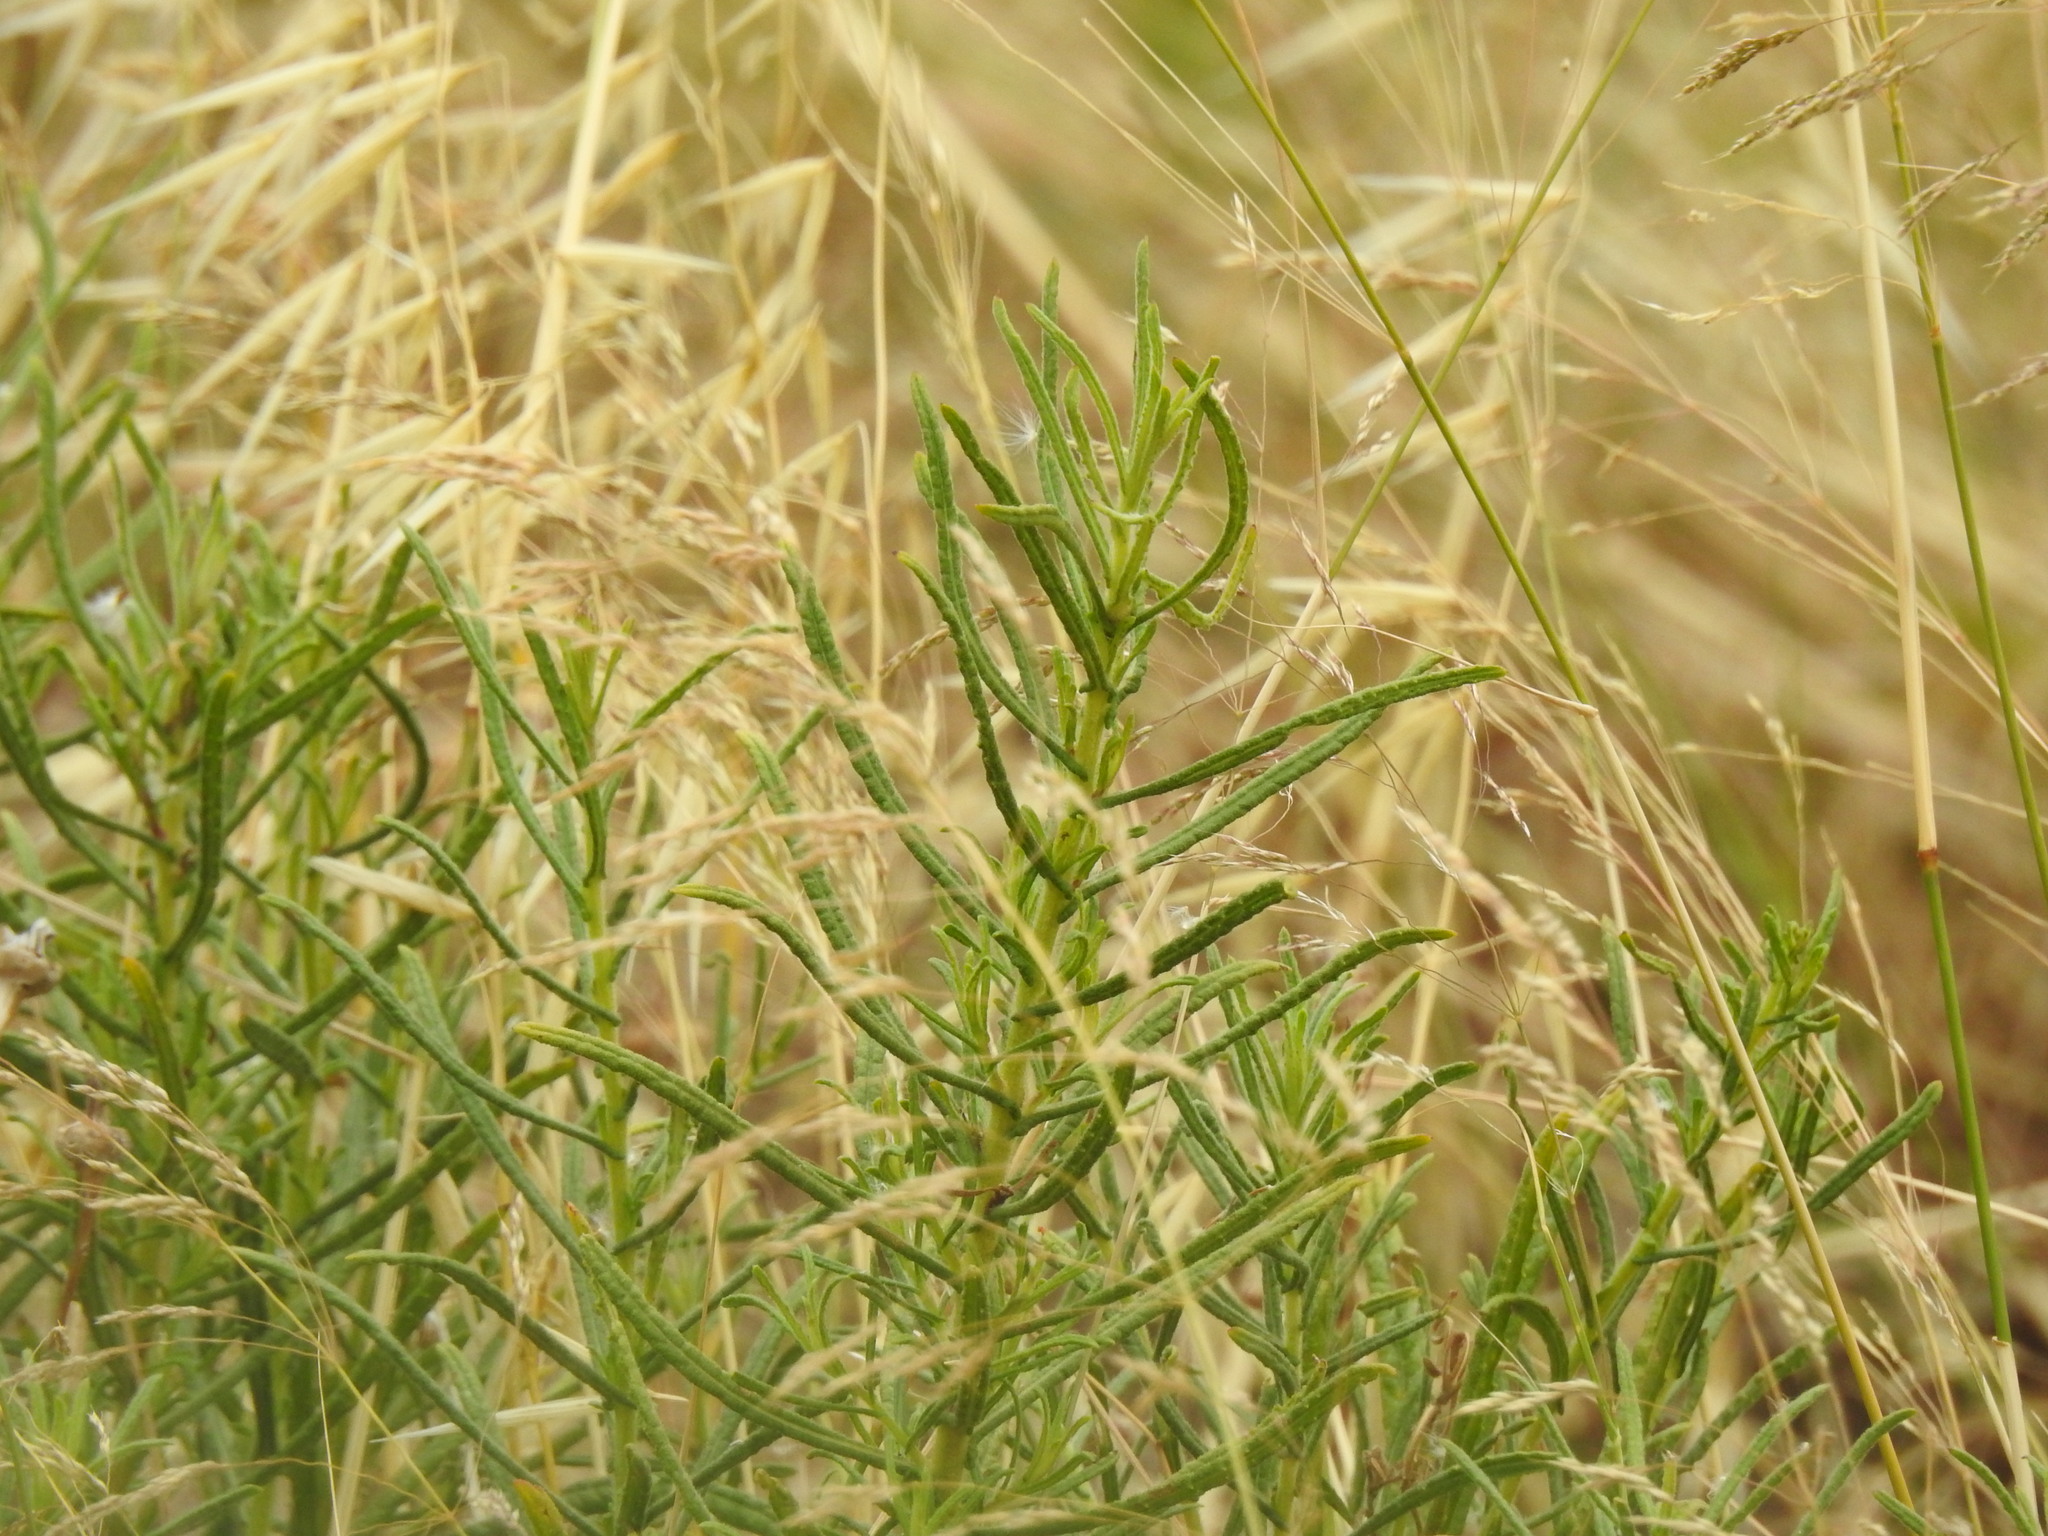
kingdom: Plantae
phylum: Tracheophyta
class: Magnoliopsida
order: Asterales
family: Asteraceae
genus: Dittrichia
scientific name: Dittrichia viscosa
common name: Woody fleabane
